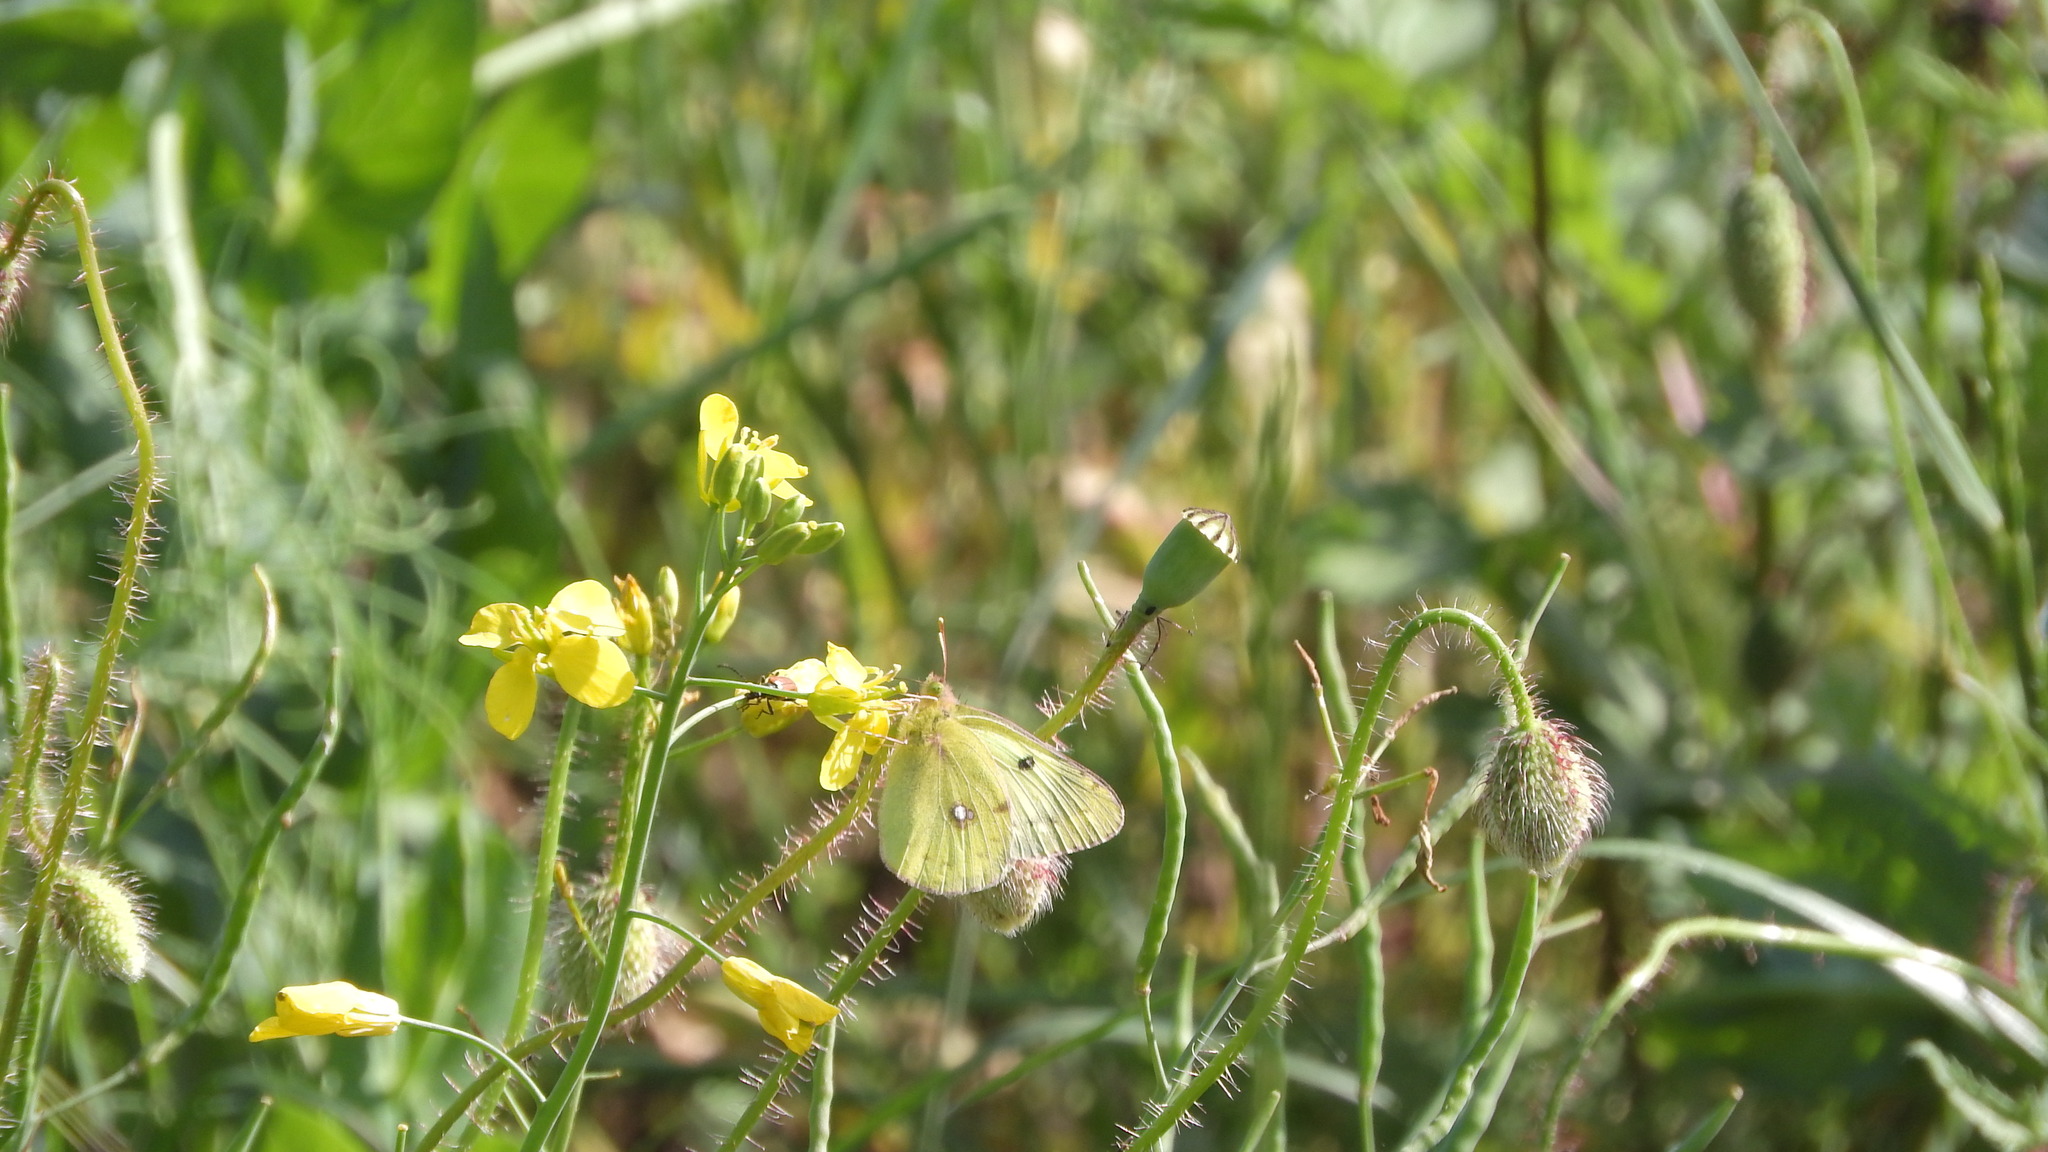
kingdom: Animalia
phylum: Arthropoda
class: Insecta
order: Lepidoptera
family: Pieridae
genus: Colias
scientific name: Colias alfacariensis
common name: Berger's clouded yellow
